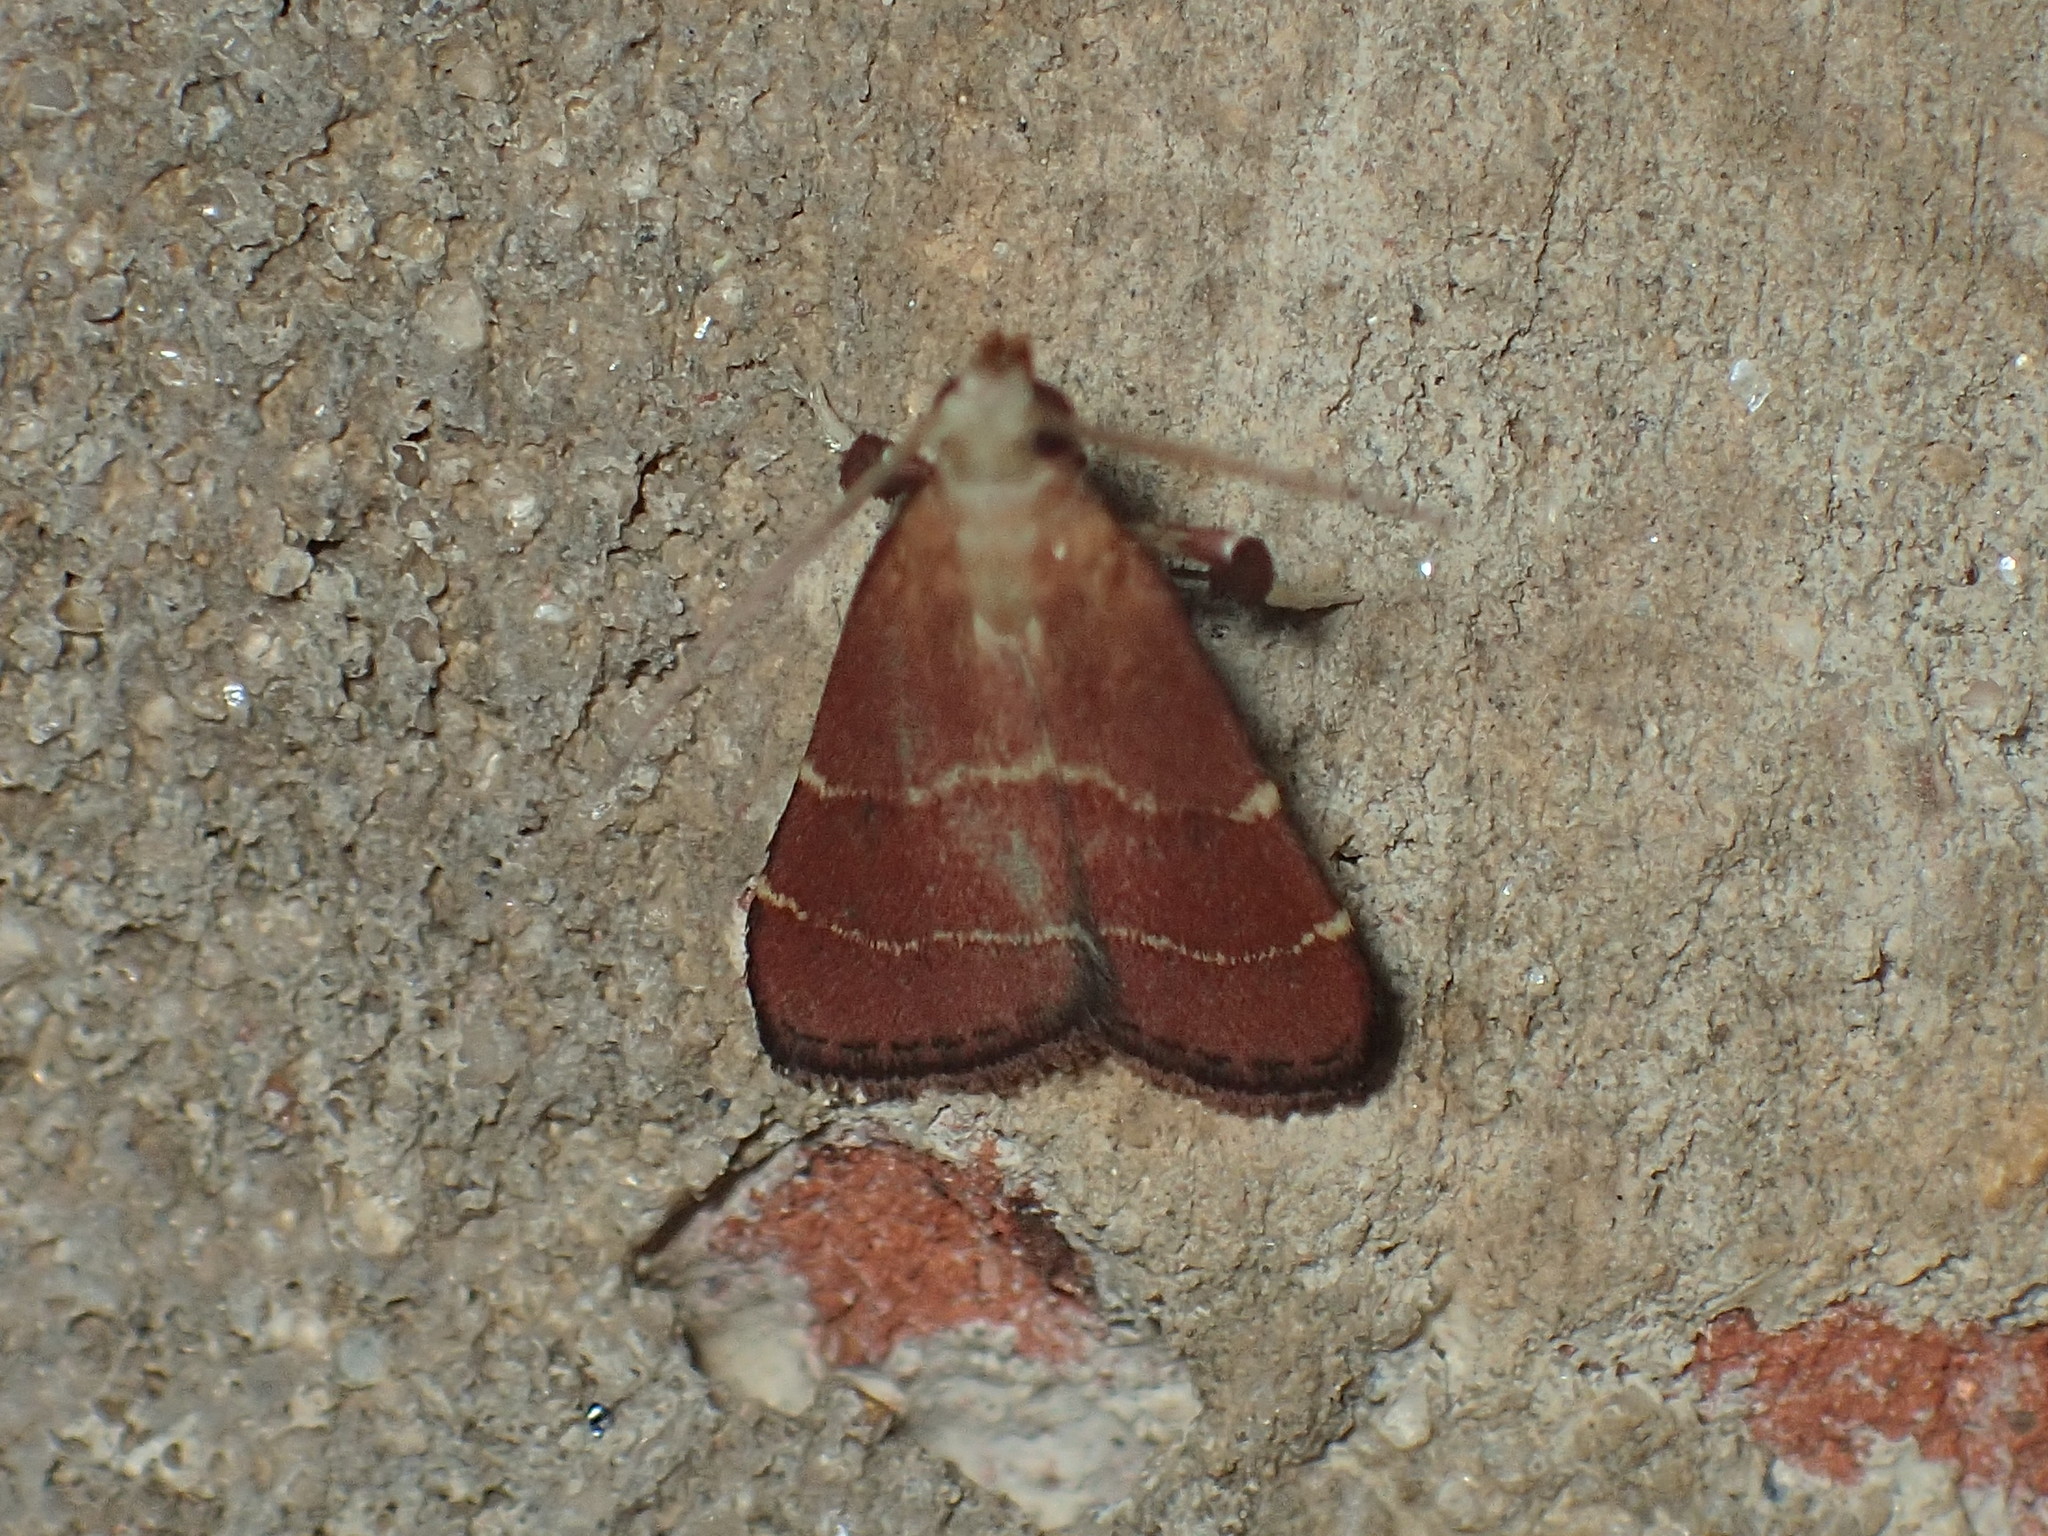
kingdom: Animalia
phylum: Arthropoda
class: Insecta
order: Lepidoptera
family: Pyralidae
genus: Arta
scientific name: Arta statalis
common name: Posturing arta moth
